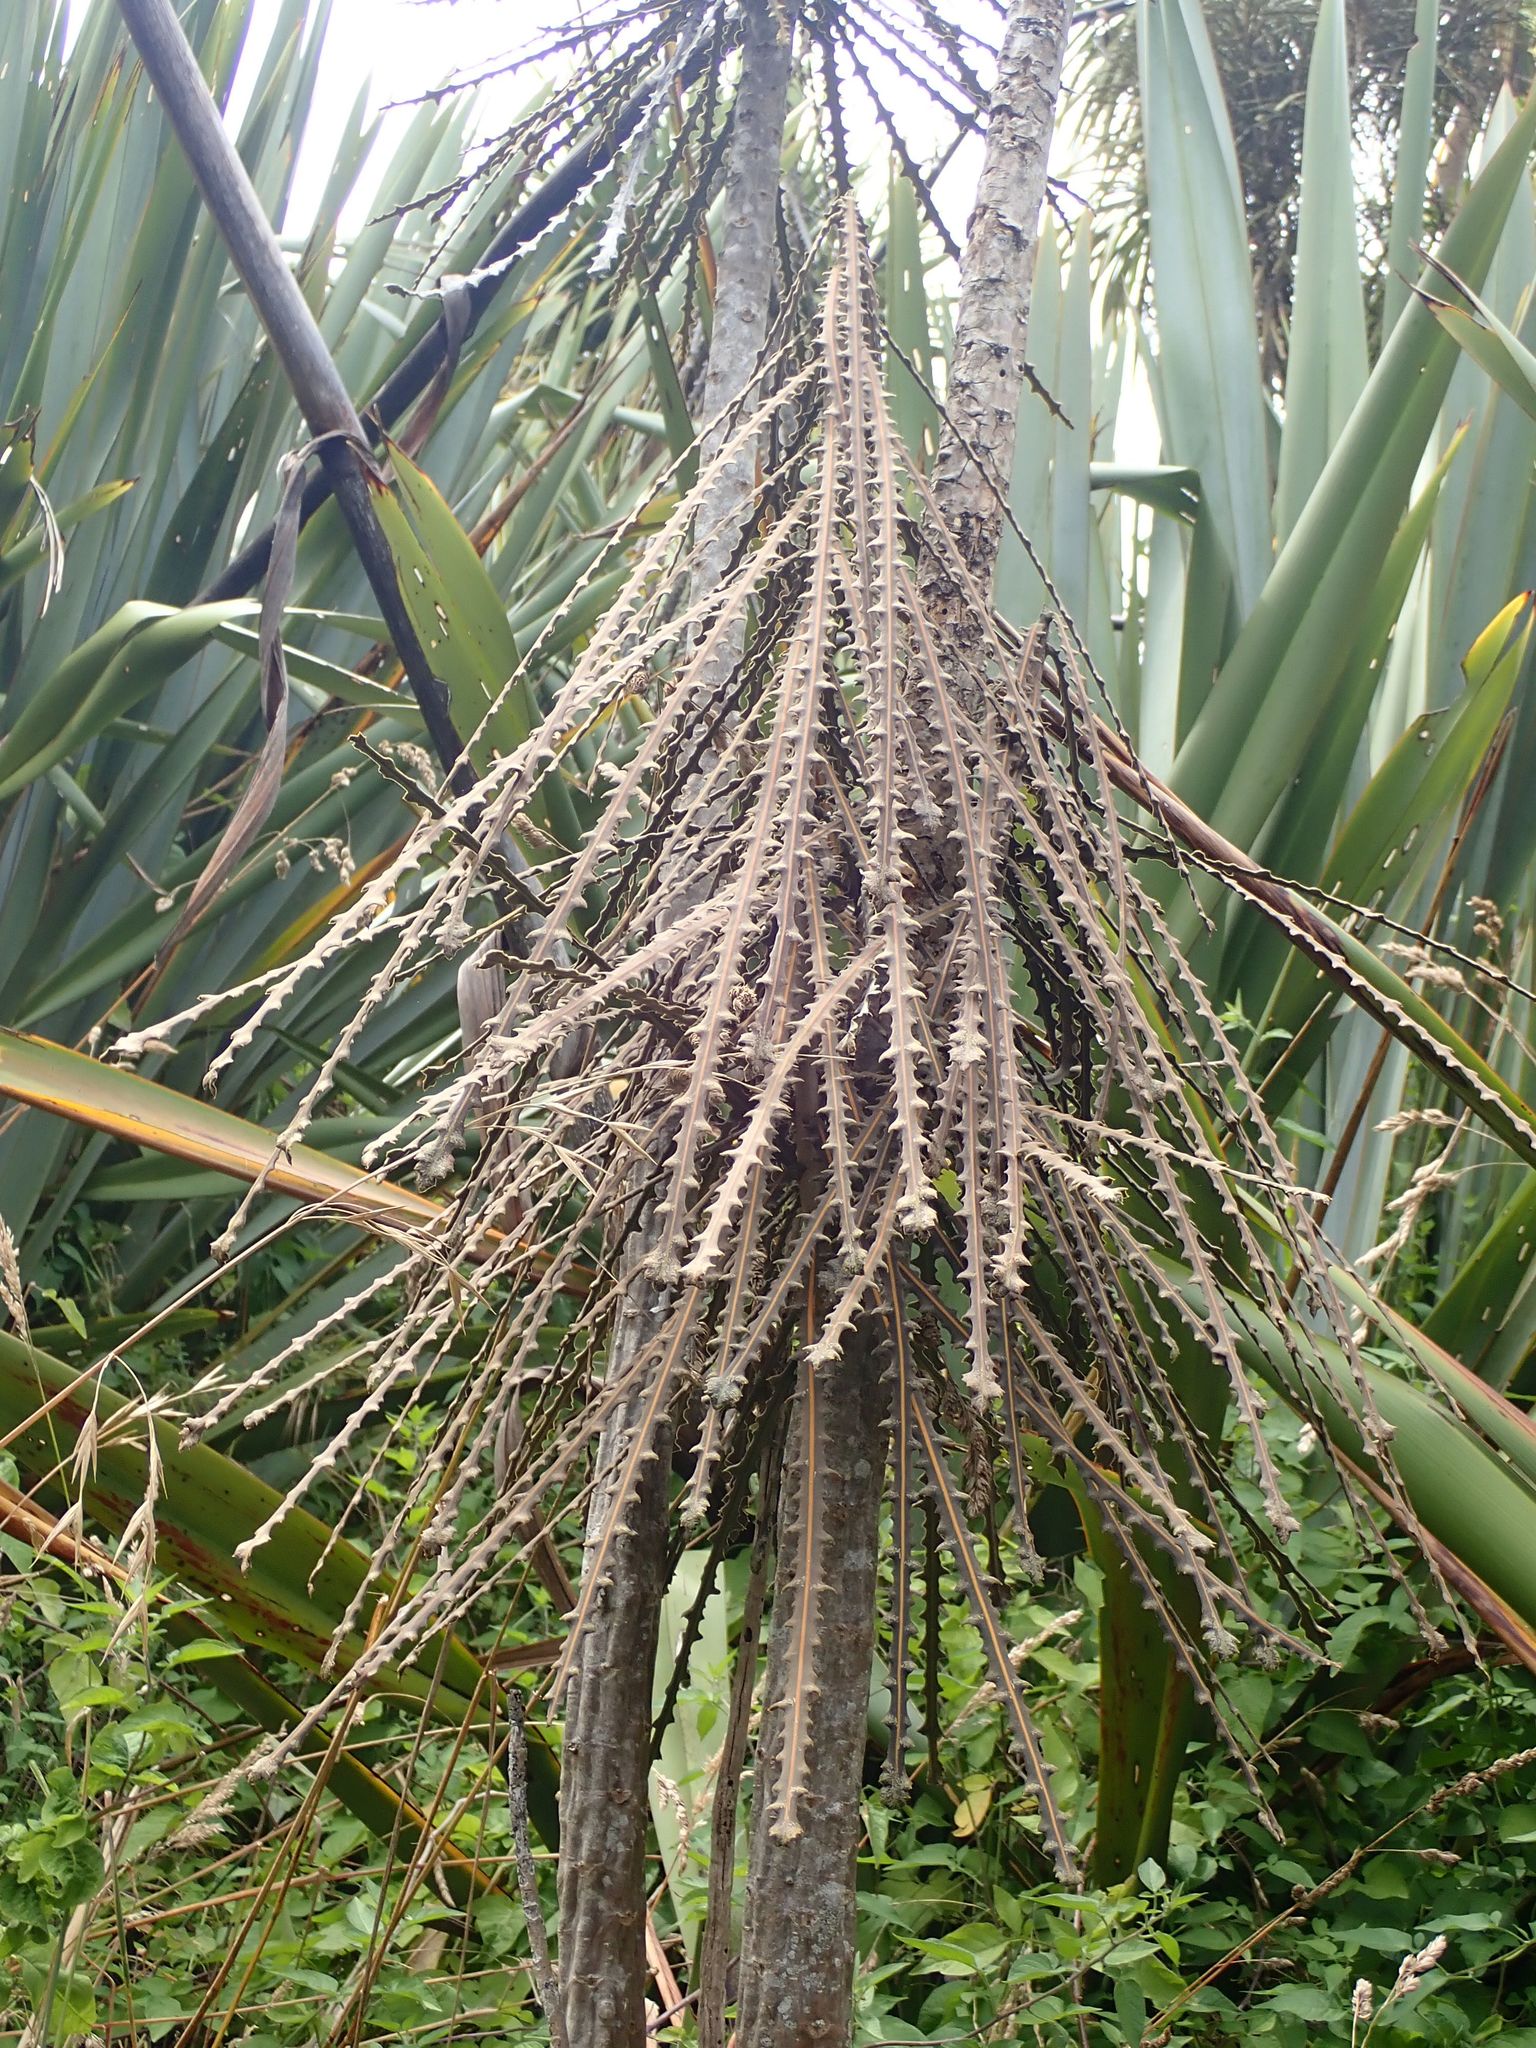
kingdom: Plantae
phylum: Tracheophyta
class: Magnoliopsida
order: Apiales
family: Araliaceae
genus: Pseudopanax
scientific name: Pseudopanax ferox
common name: Fierce lancewood
